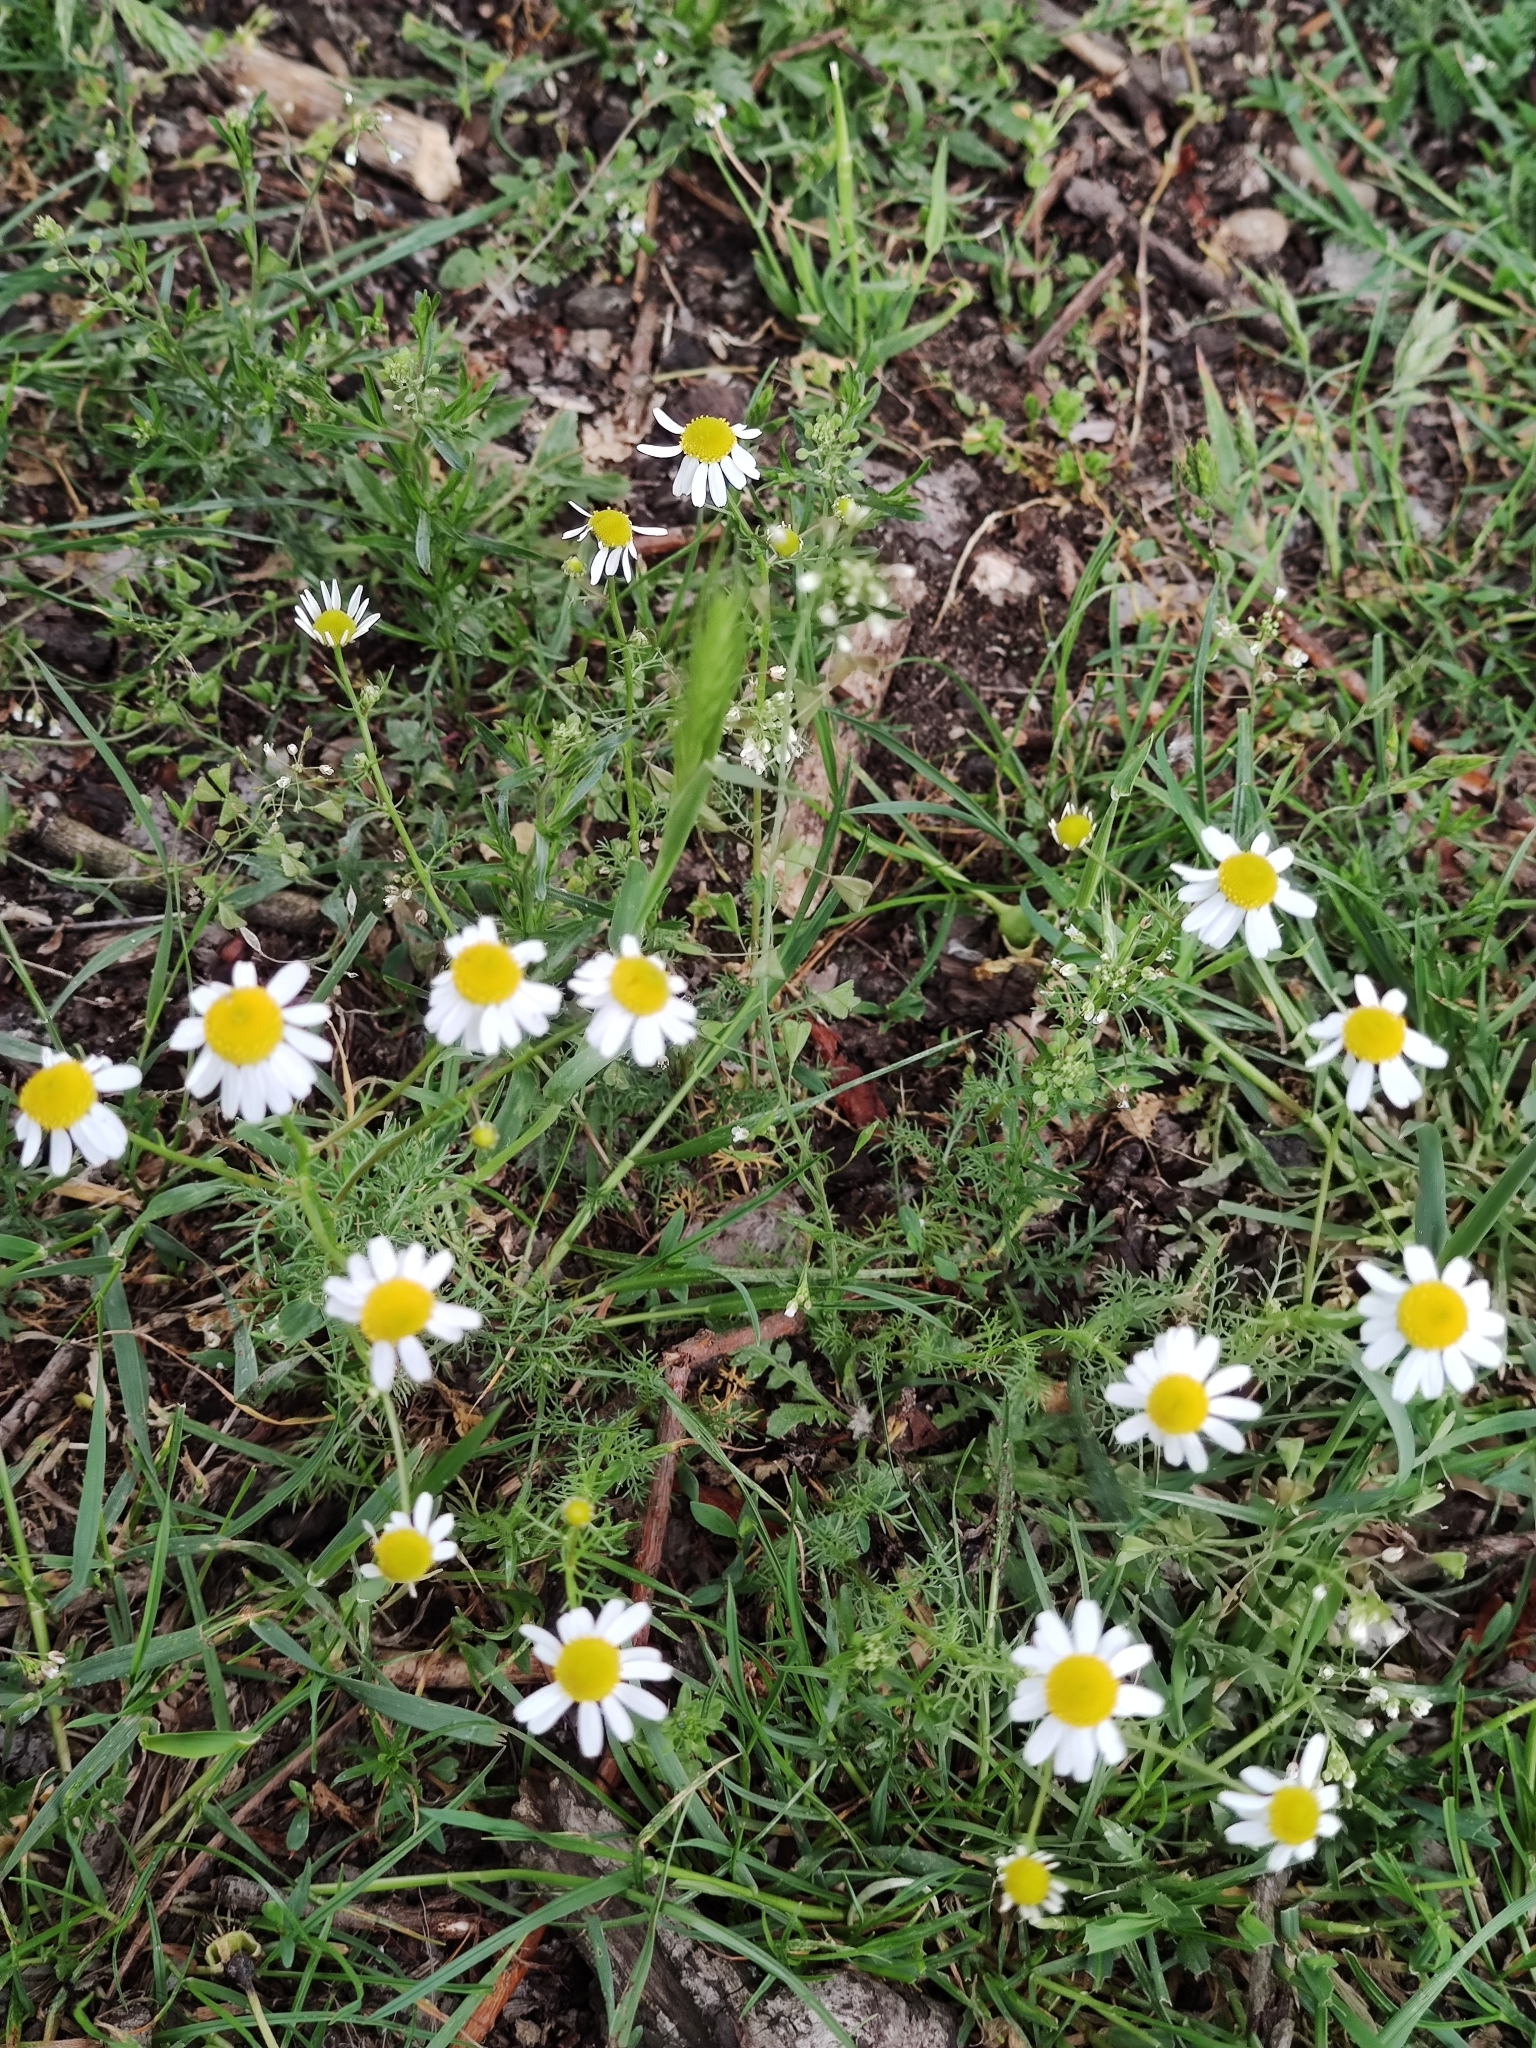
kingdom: Plantae
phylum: Tracheophyta
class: Magnoliopsida
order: Asterales
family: Asteraceae
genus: Matricaria
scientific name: Matricaria chamomilla
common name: Scented mayweed
